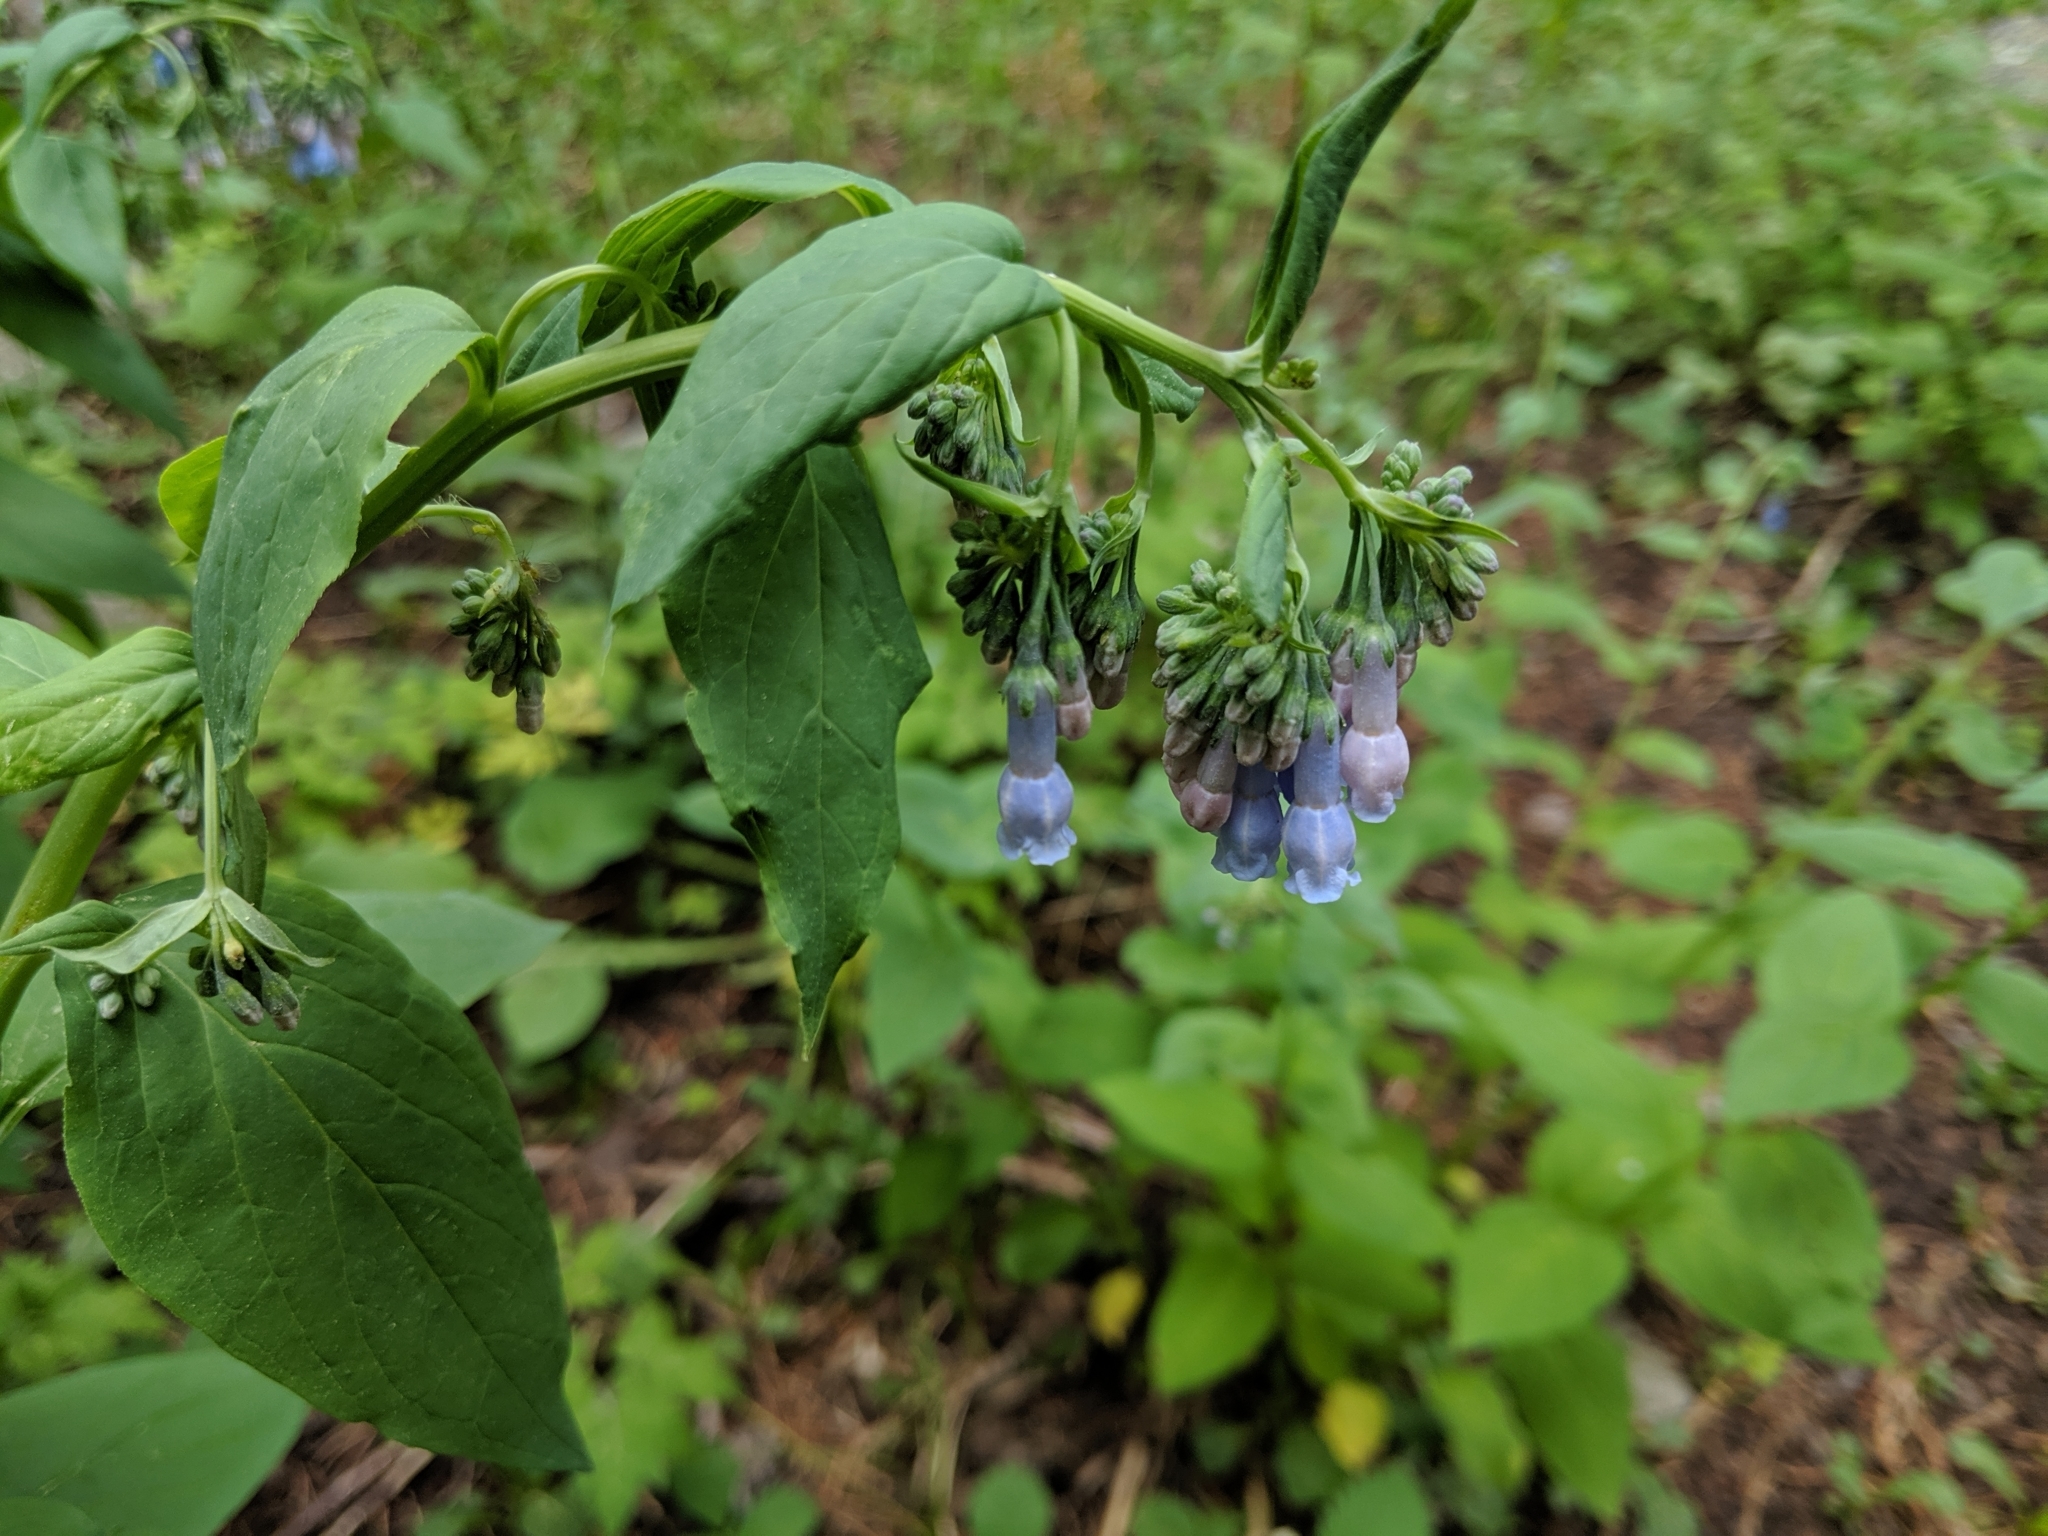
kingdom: Plantae
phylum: Tracheophyta
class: Magnoliopsida
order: Boraginales
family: Boraginaceae
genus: Mertensia
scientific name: Mertensia ciliata
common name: Tall chiming-bells
